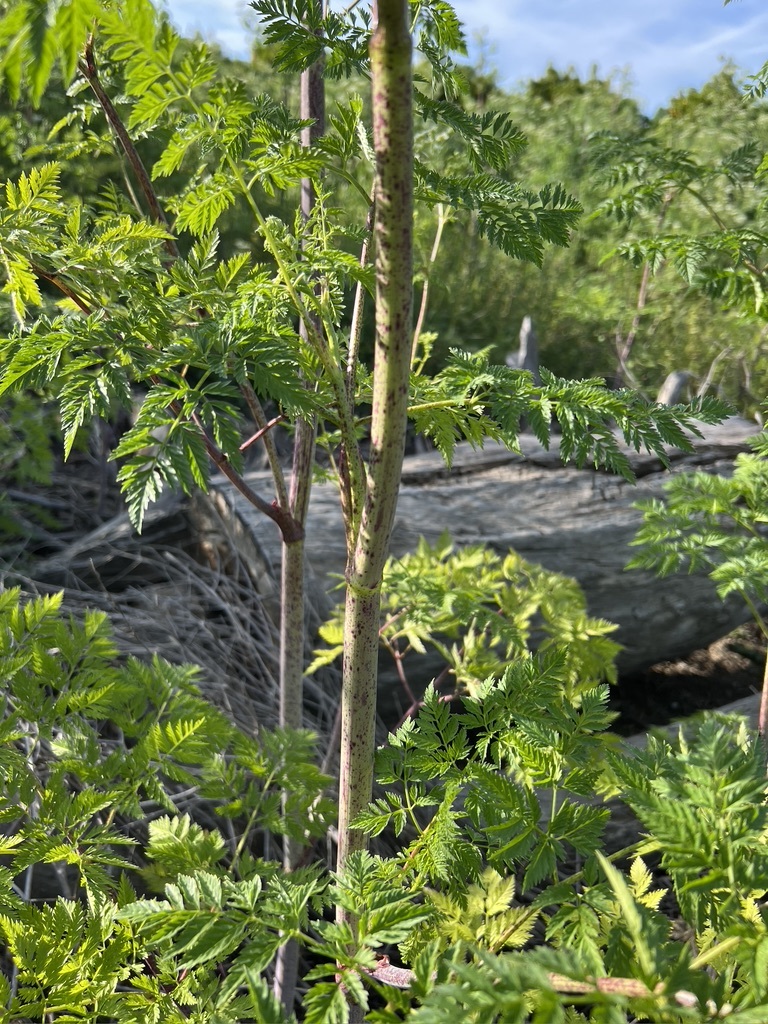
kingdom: Plantae
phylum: Tracheophyta
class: Magnoliopsida
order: Apiales
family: Apiaceae
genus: Conium
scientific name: Conium maculatum
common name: Hemlock
